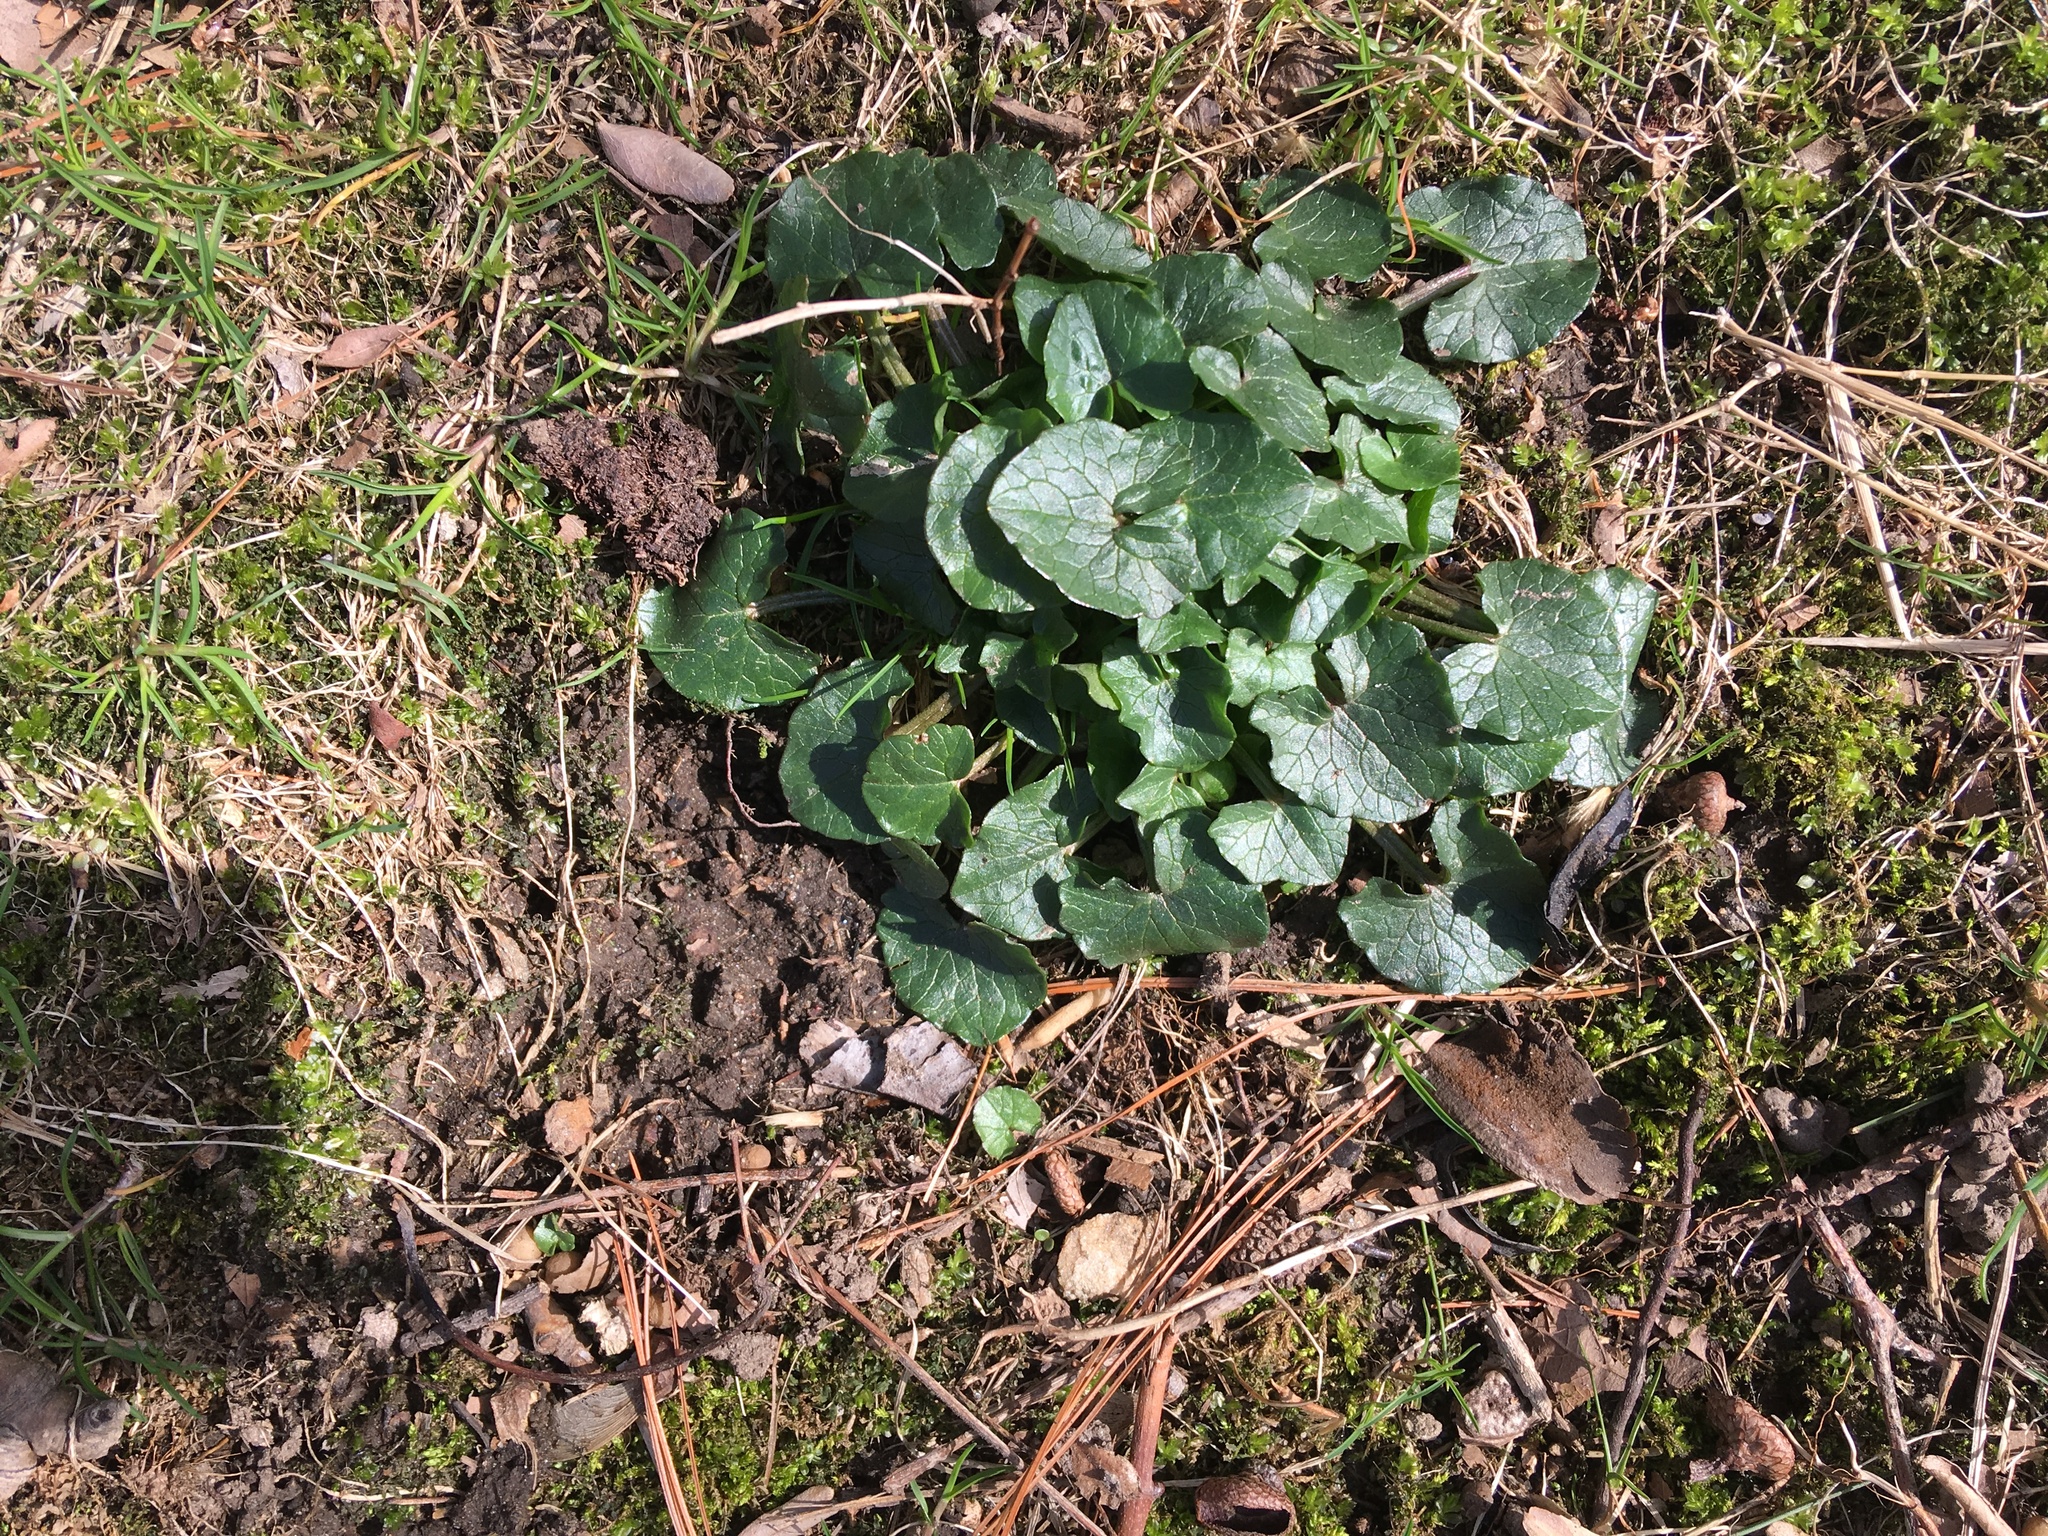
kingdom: Plantae
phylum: Tracheophyta
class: Magnoliopsida
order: Ranunculales
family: Ranunculaceae
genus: Ficaria
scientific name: Ficaria verna
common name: Lesser celandine
